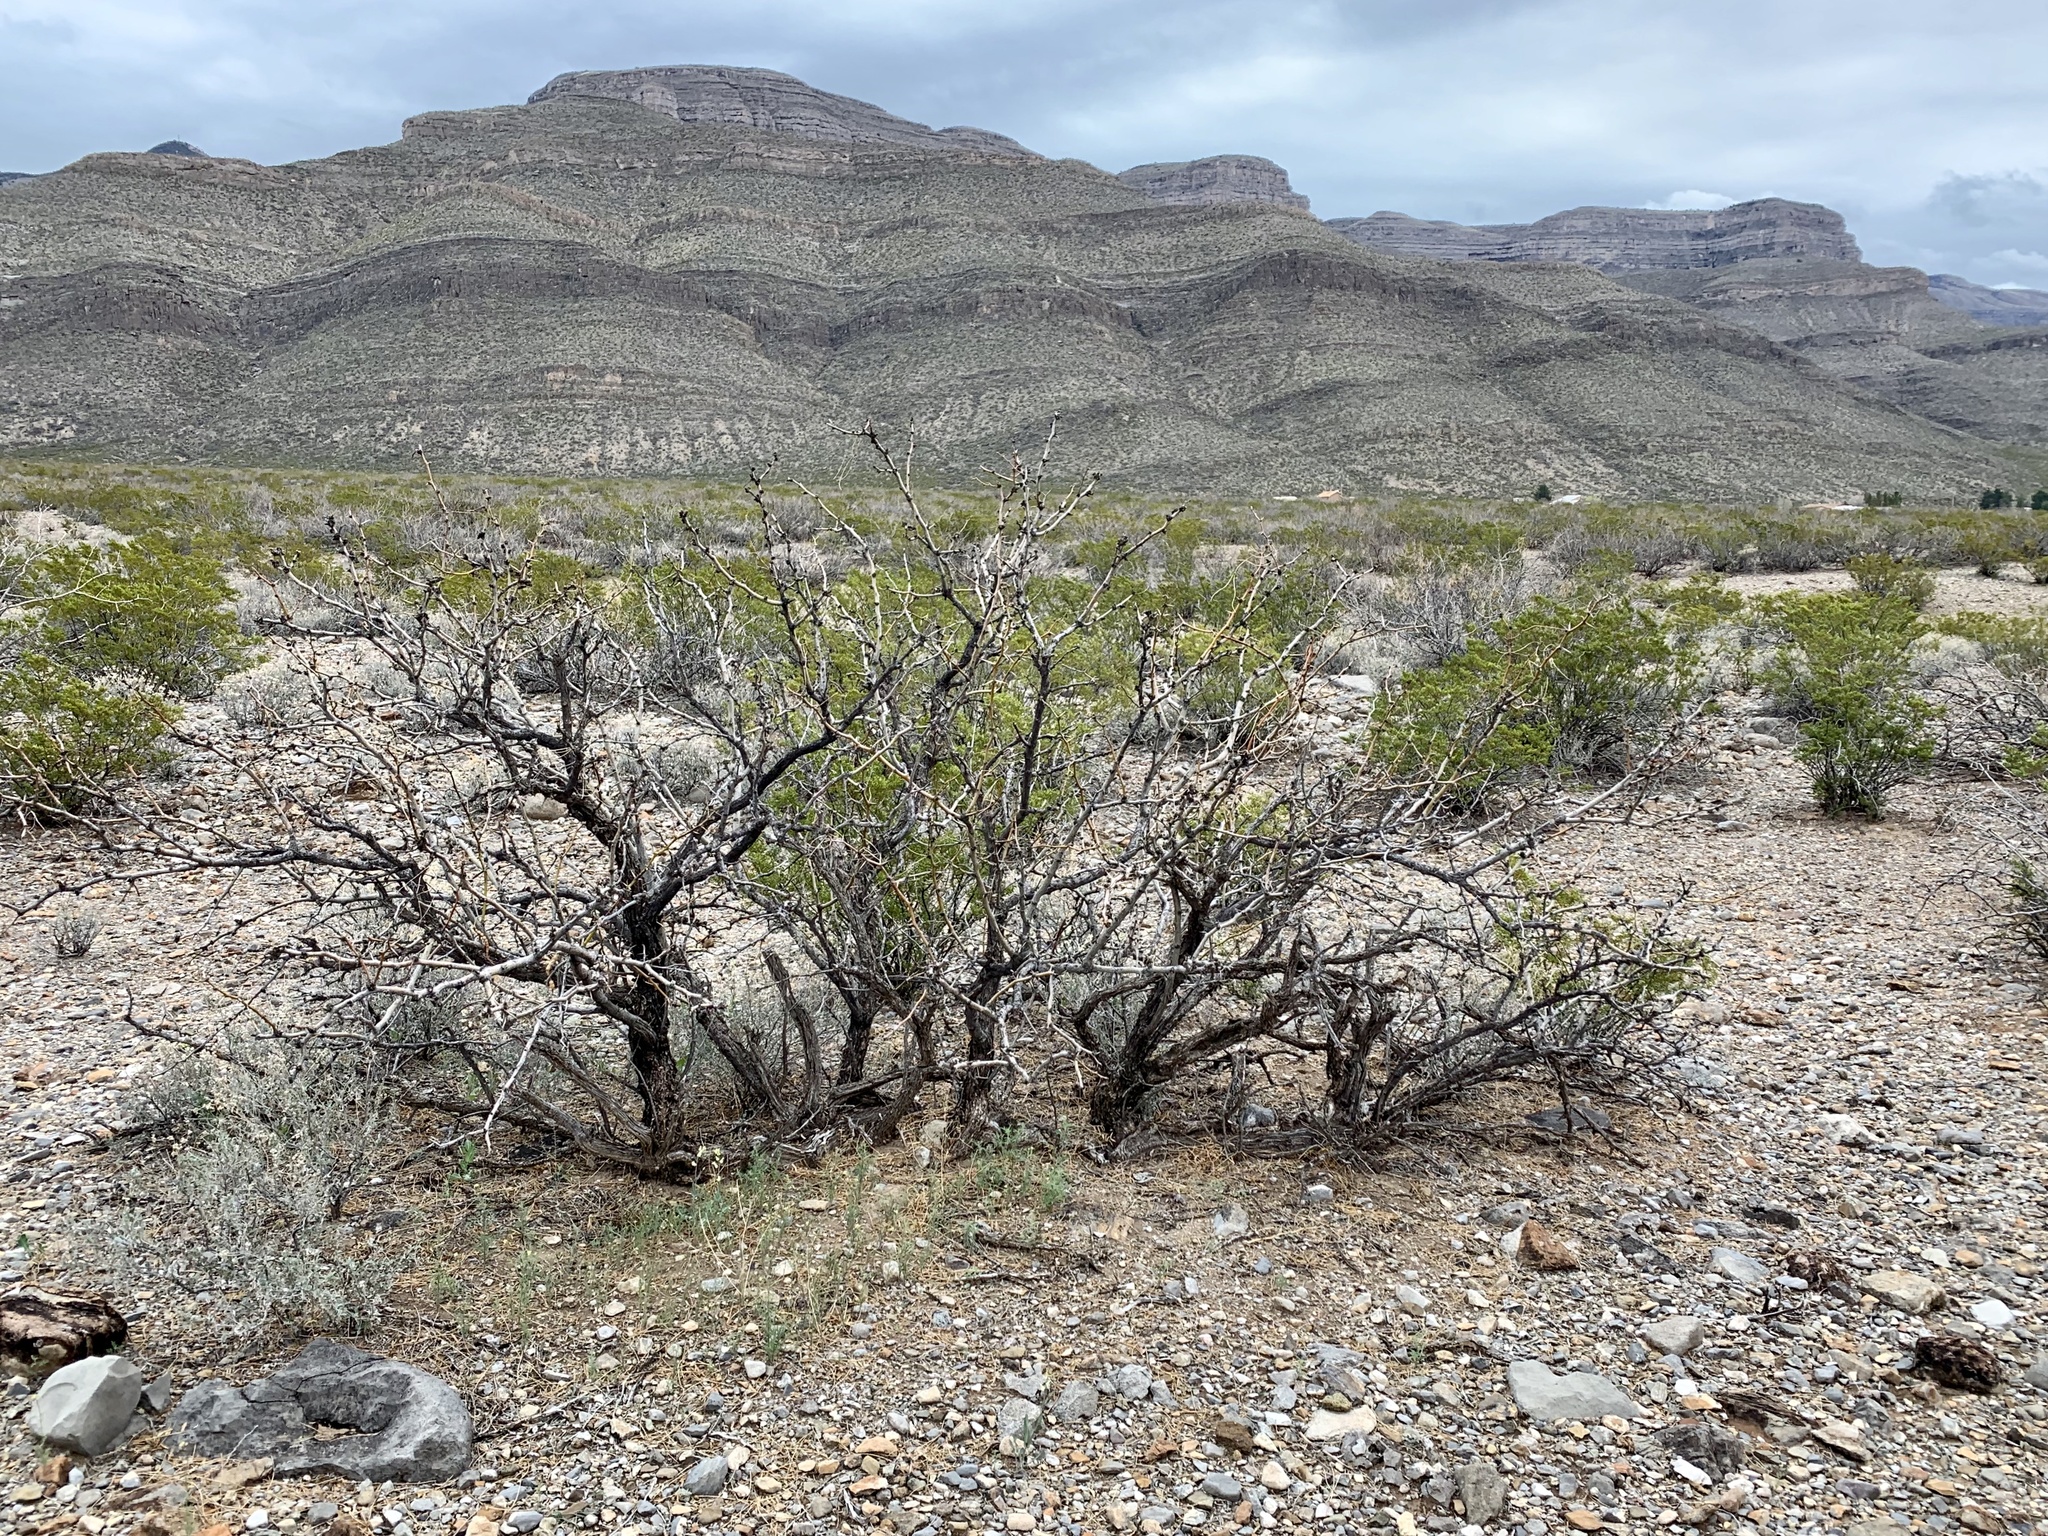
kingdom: Plantae
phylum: Tracheophyta
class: Magnoliopsida
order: Fabales
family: Fabaceae
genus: Prosopis
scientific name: Prosopis glandulosa
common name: Honey mesquite
